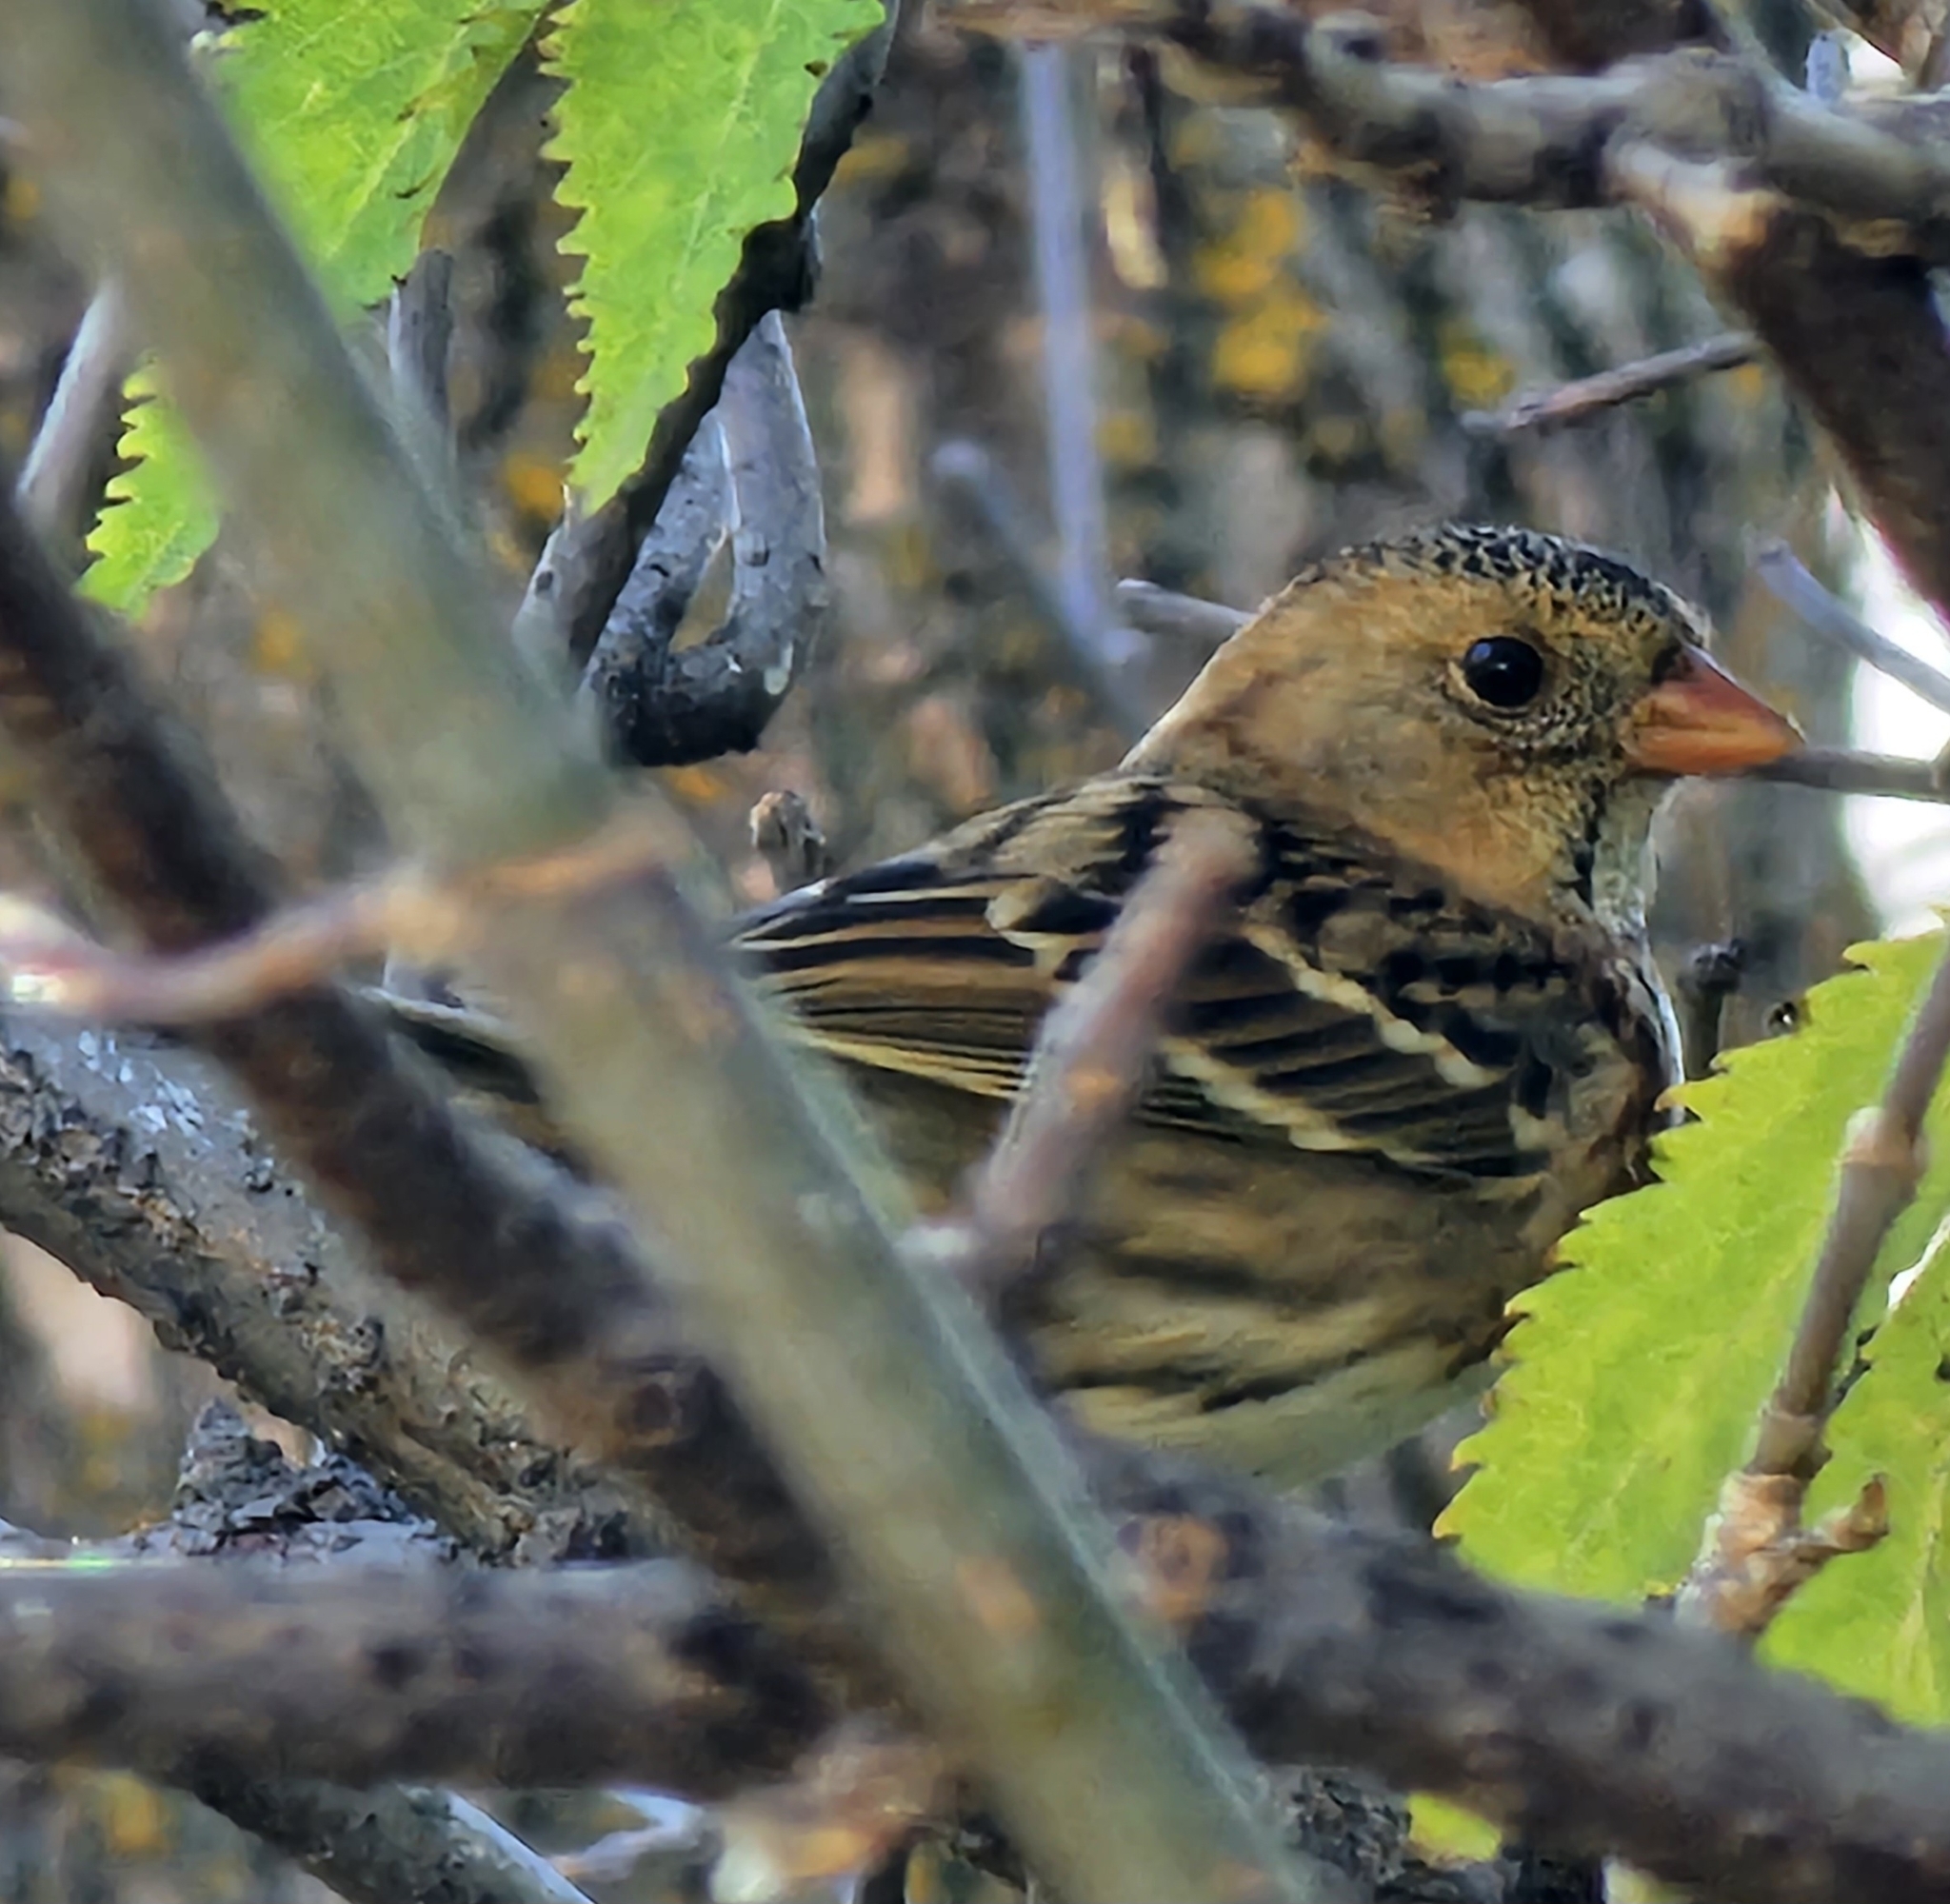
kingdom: Animalia
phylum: Chordata
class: Aves
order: Passeriformes
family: Passerellidae
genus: Zonotrichia
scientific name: Zonotrichia querula
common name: Harris's sparrow
